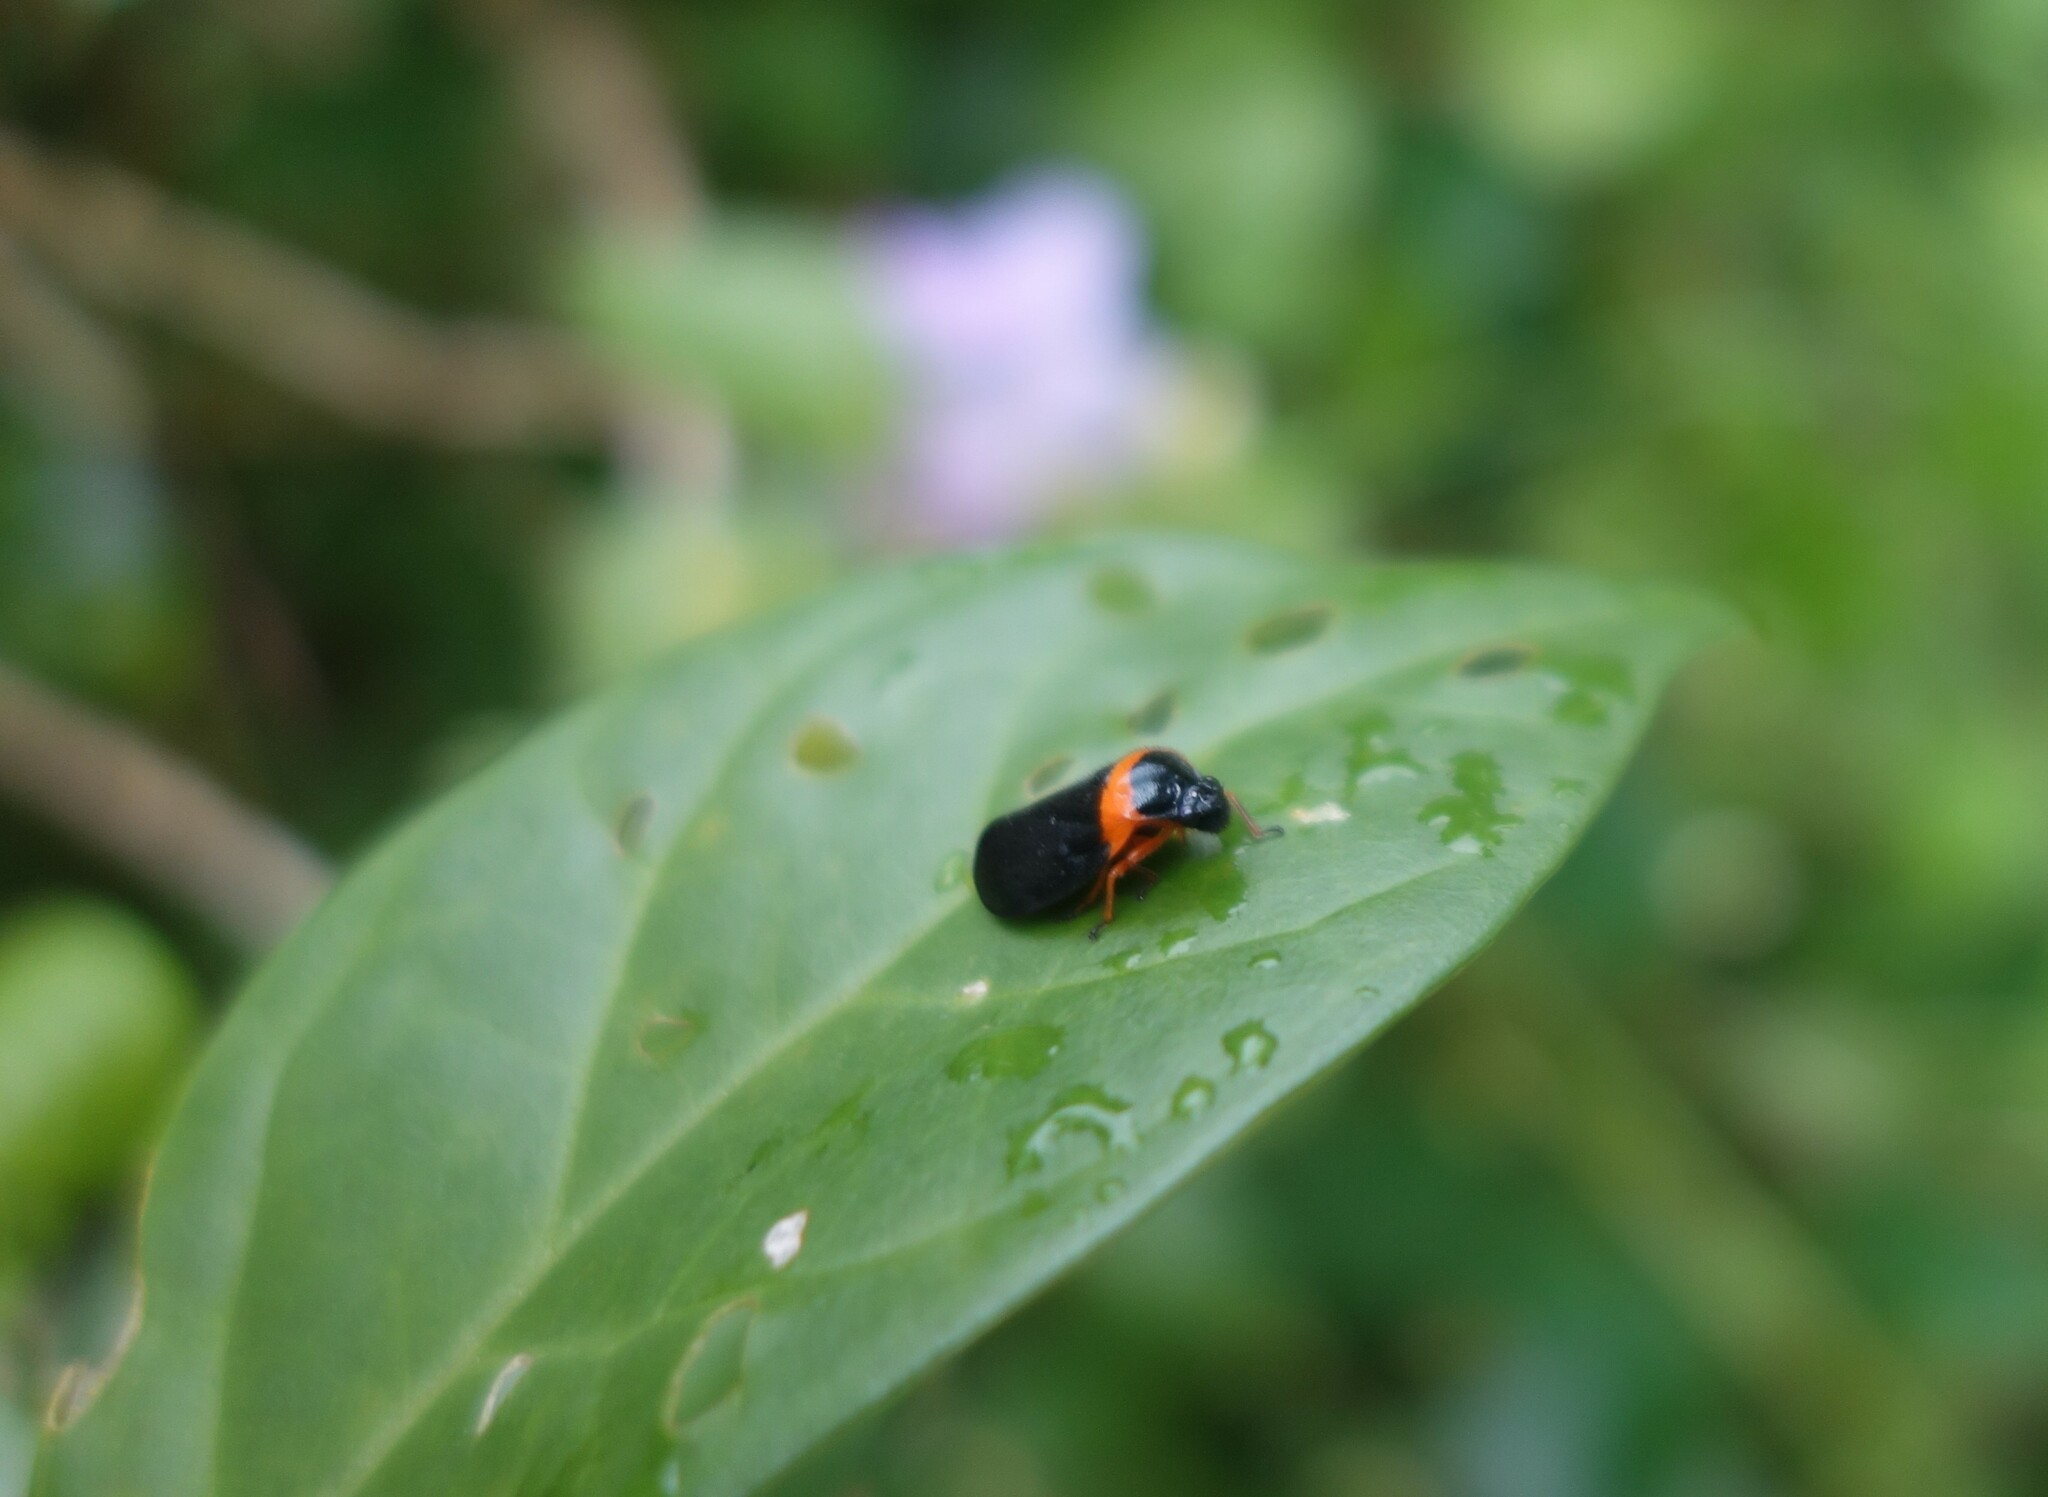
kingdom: Animalia
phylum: Arthropoda
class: Insecta
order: Hemiptera
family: Cercopidae
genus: Phymatostetha
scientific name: Phymatostetha deschampsi
